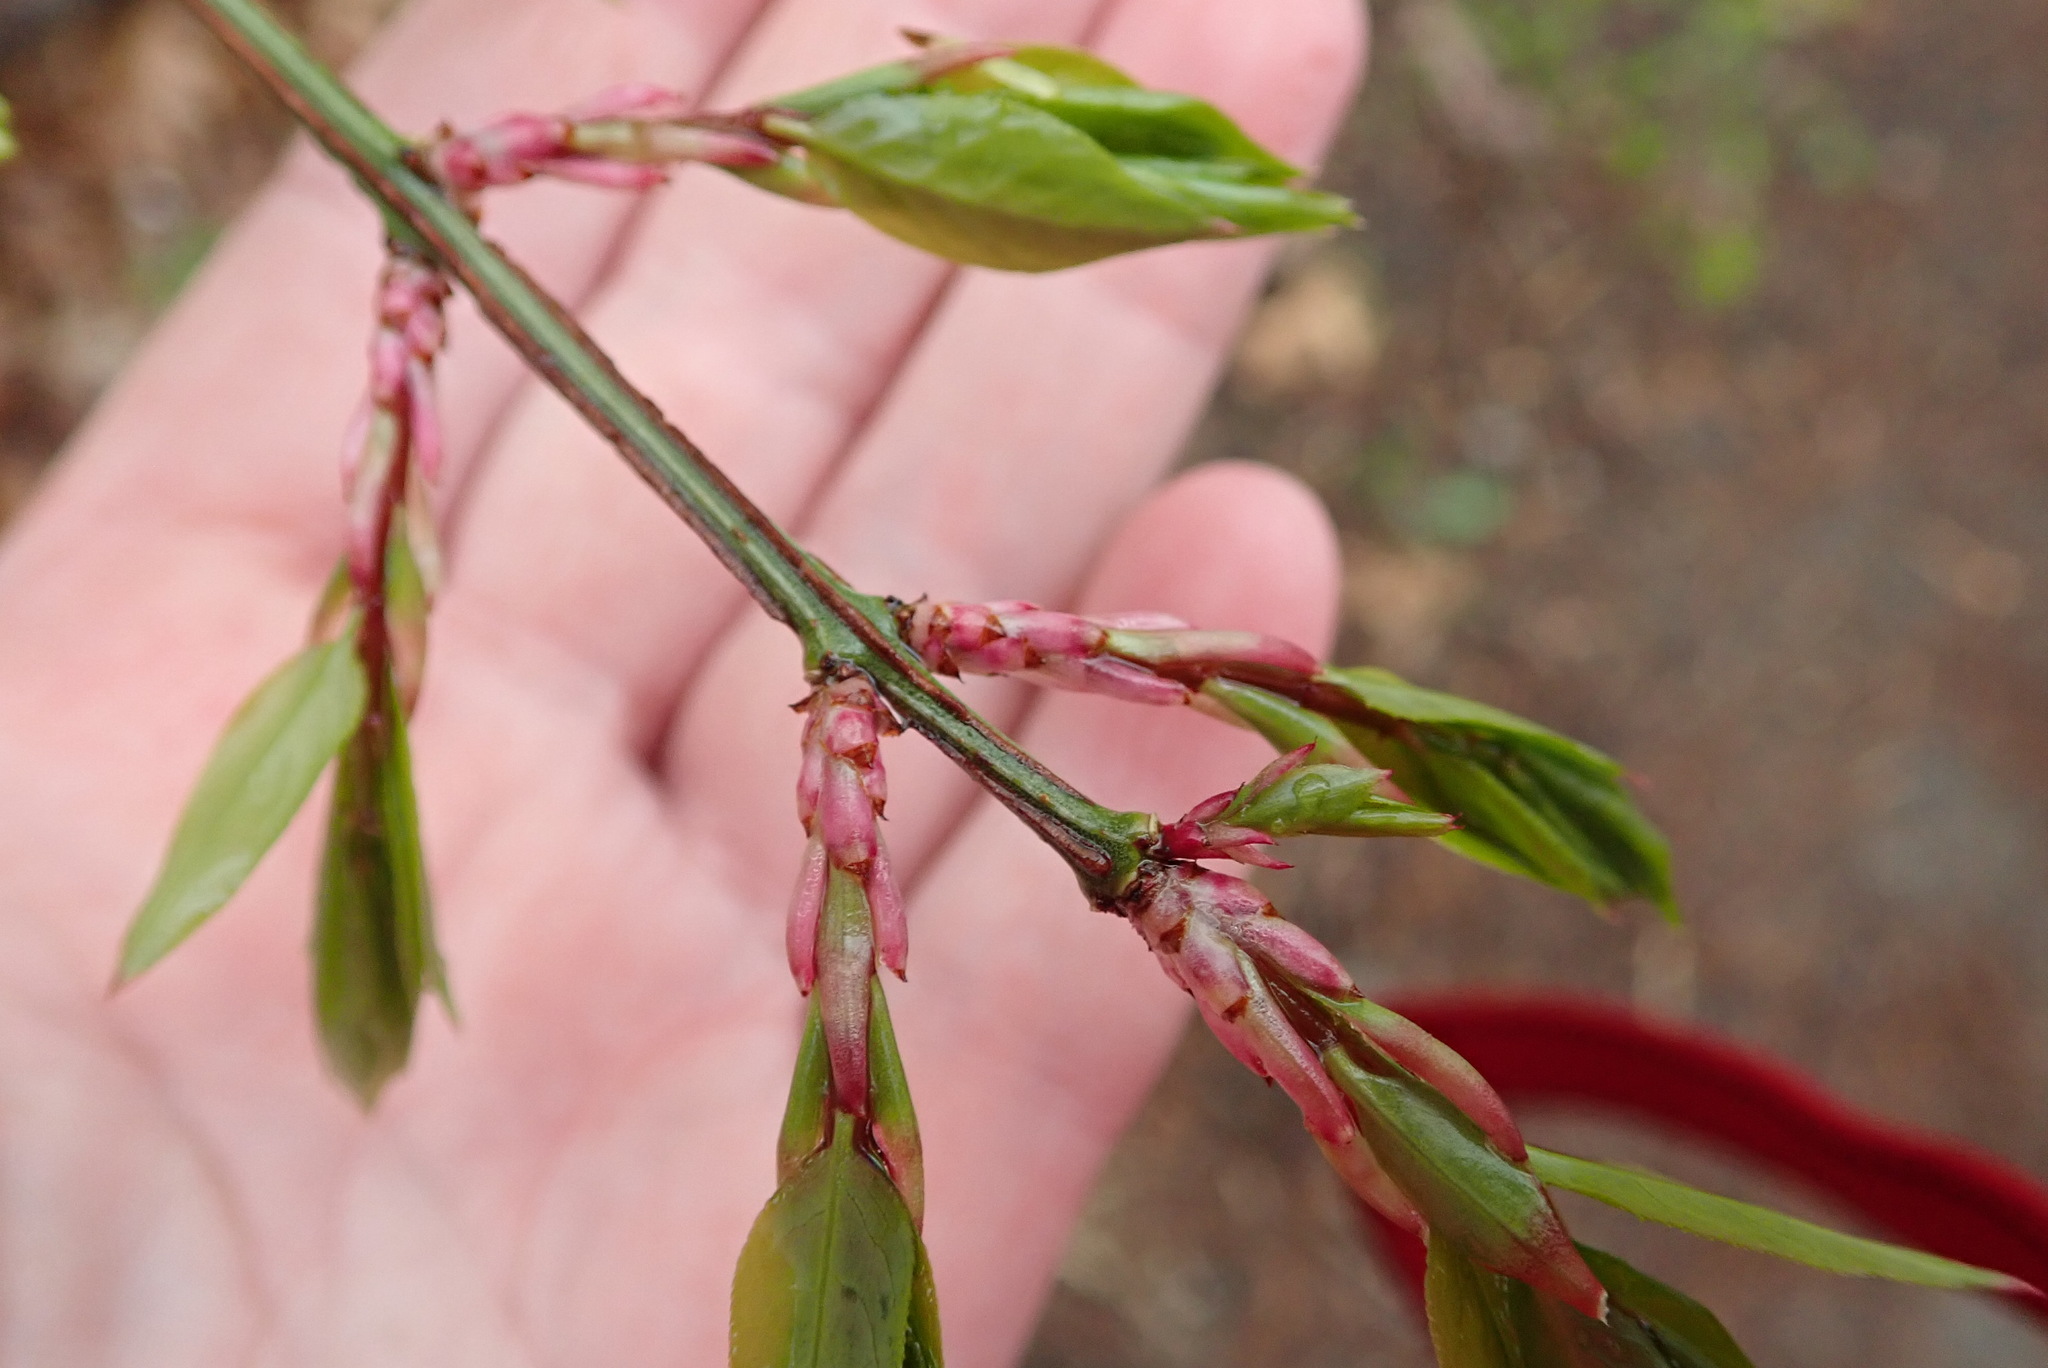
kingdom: Plantae
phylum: Tracheophyta
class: Magnoliopsida
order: Celastrales
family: Celastraceae
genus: Euonymus
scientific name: Euonymus alatus
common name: Winged euonymus
